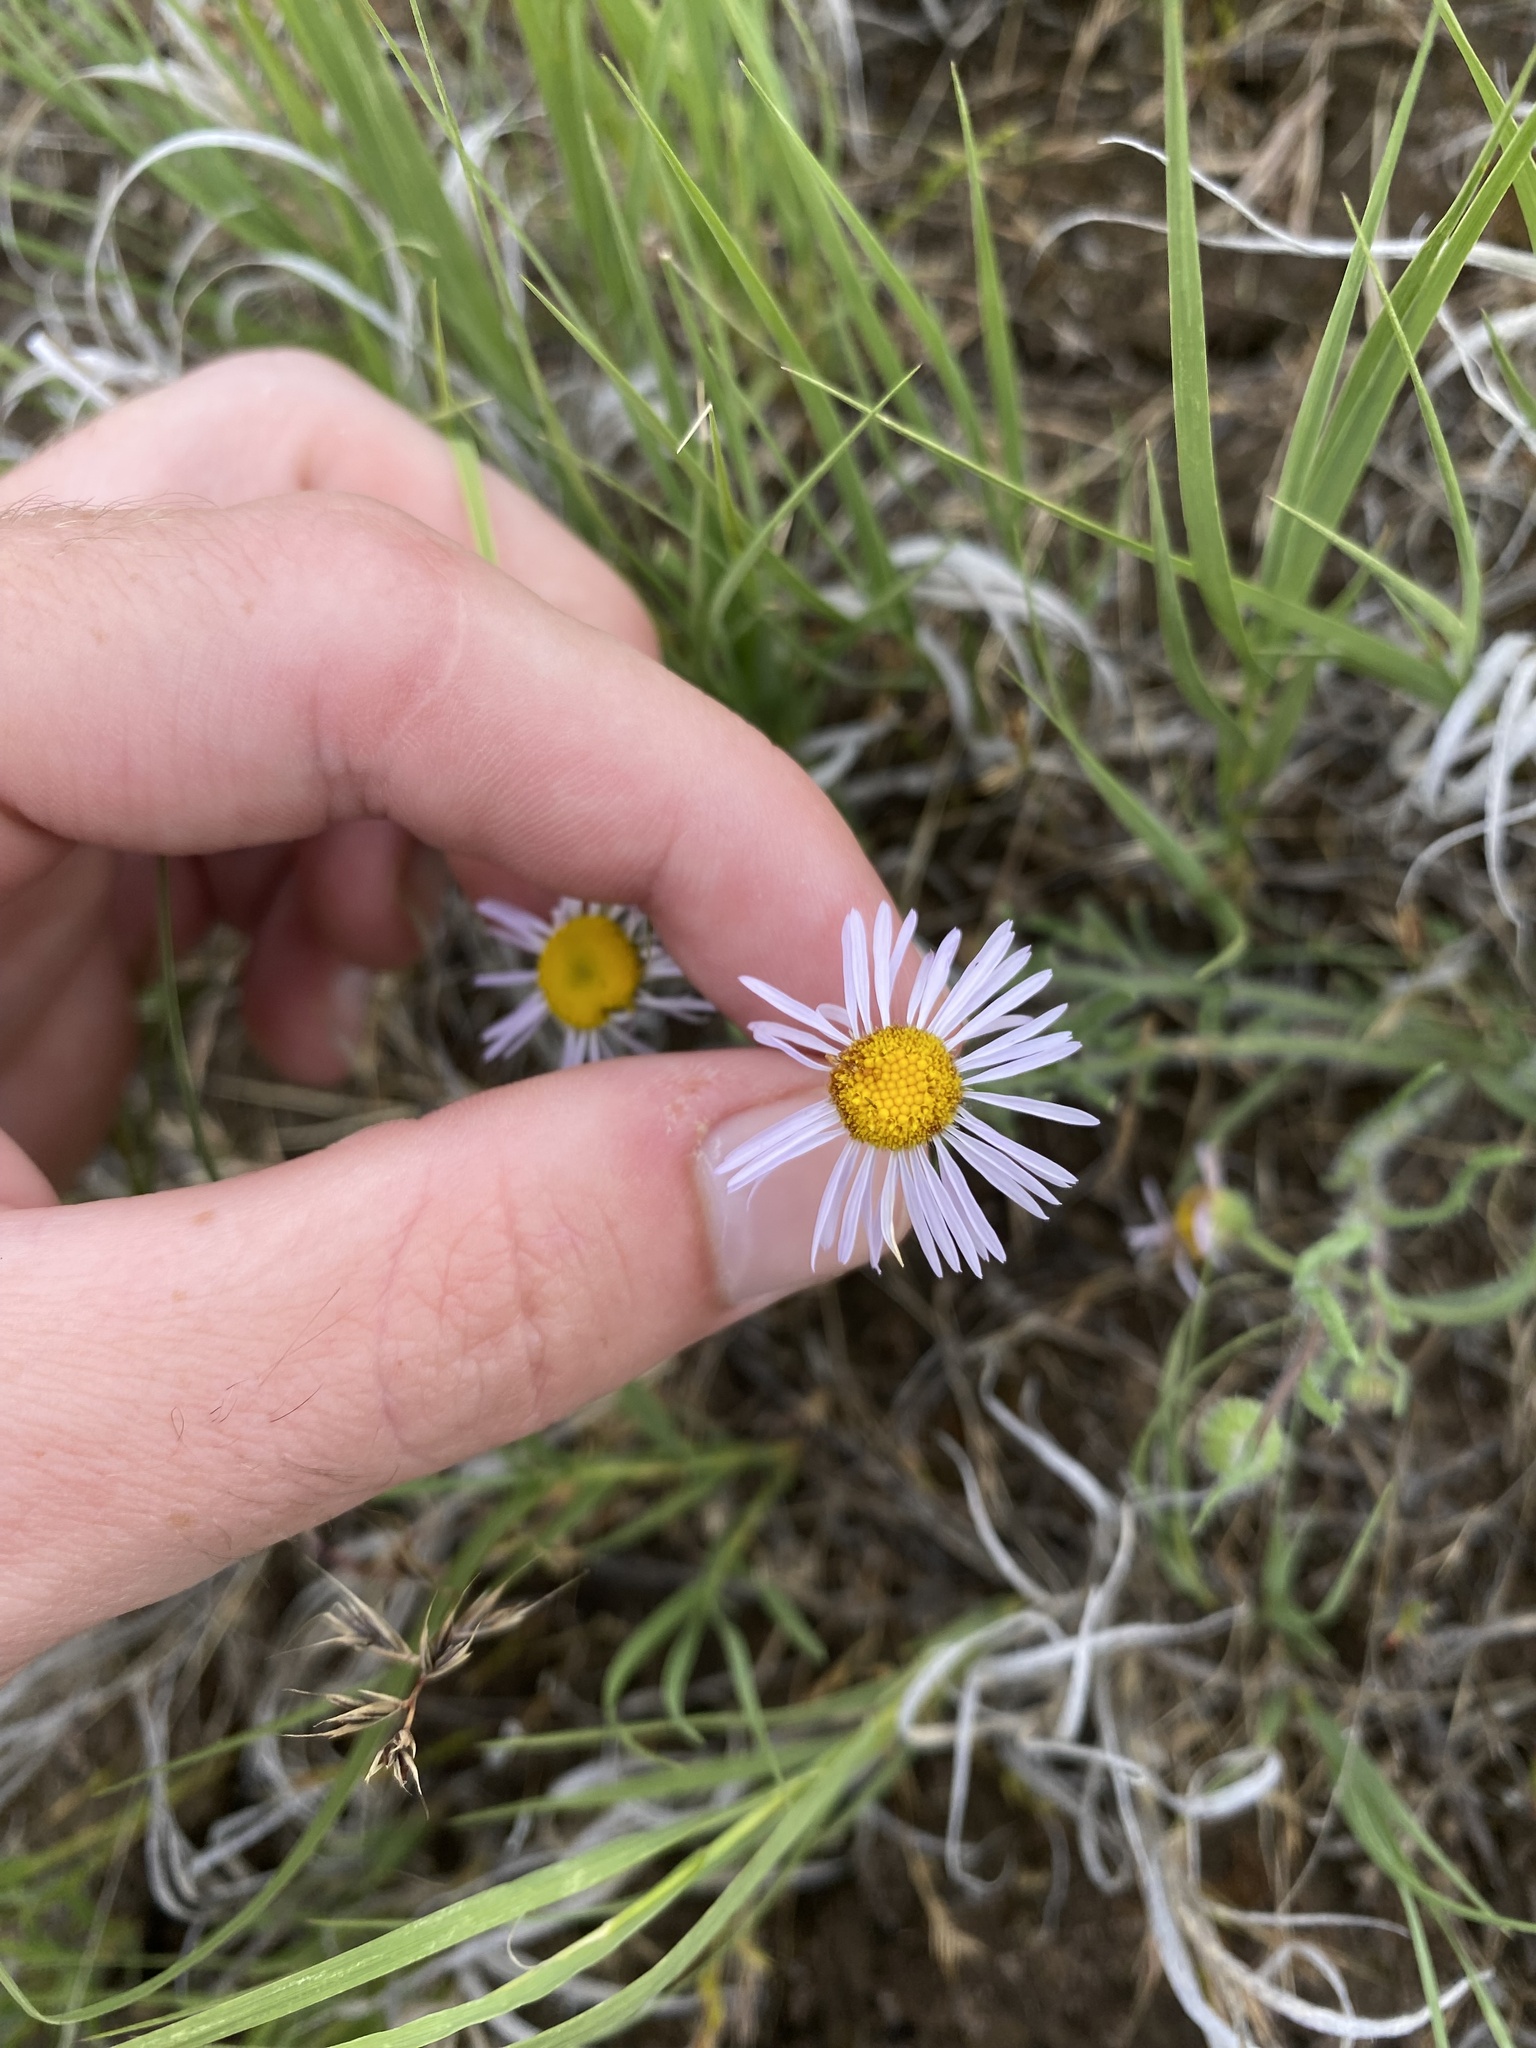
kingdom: Plantae
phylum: Tracheophyta
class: Magnoliopsida
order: Asterales
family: Asteraceae
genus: Erigeron
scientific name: Erigeron pumilus
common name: Shaggy fleabane
